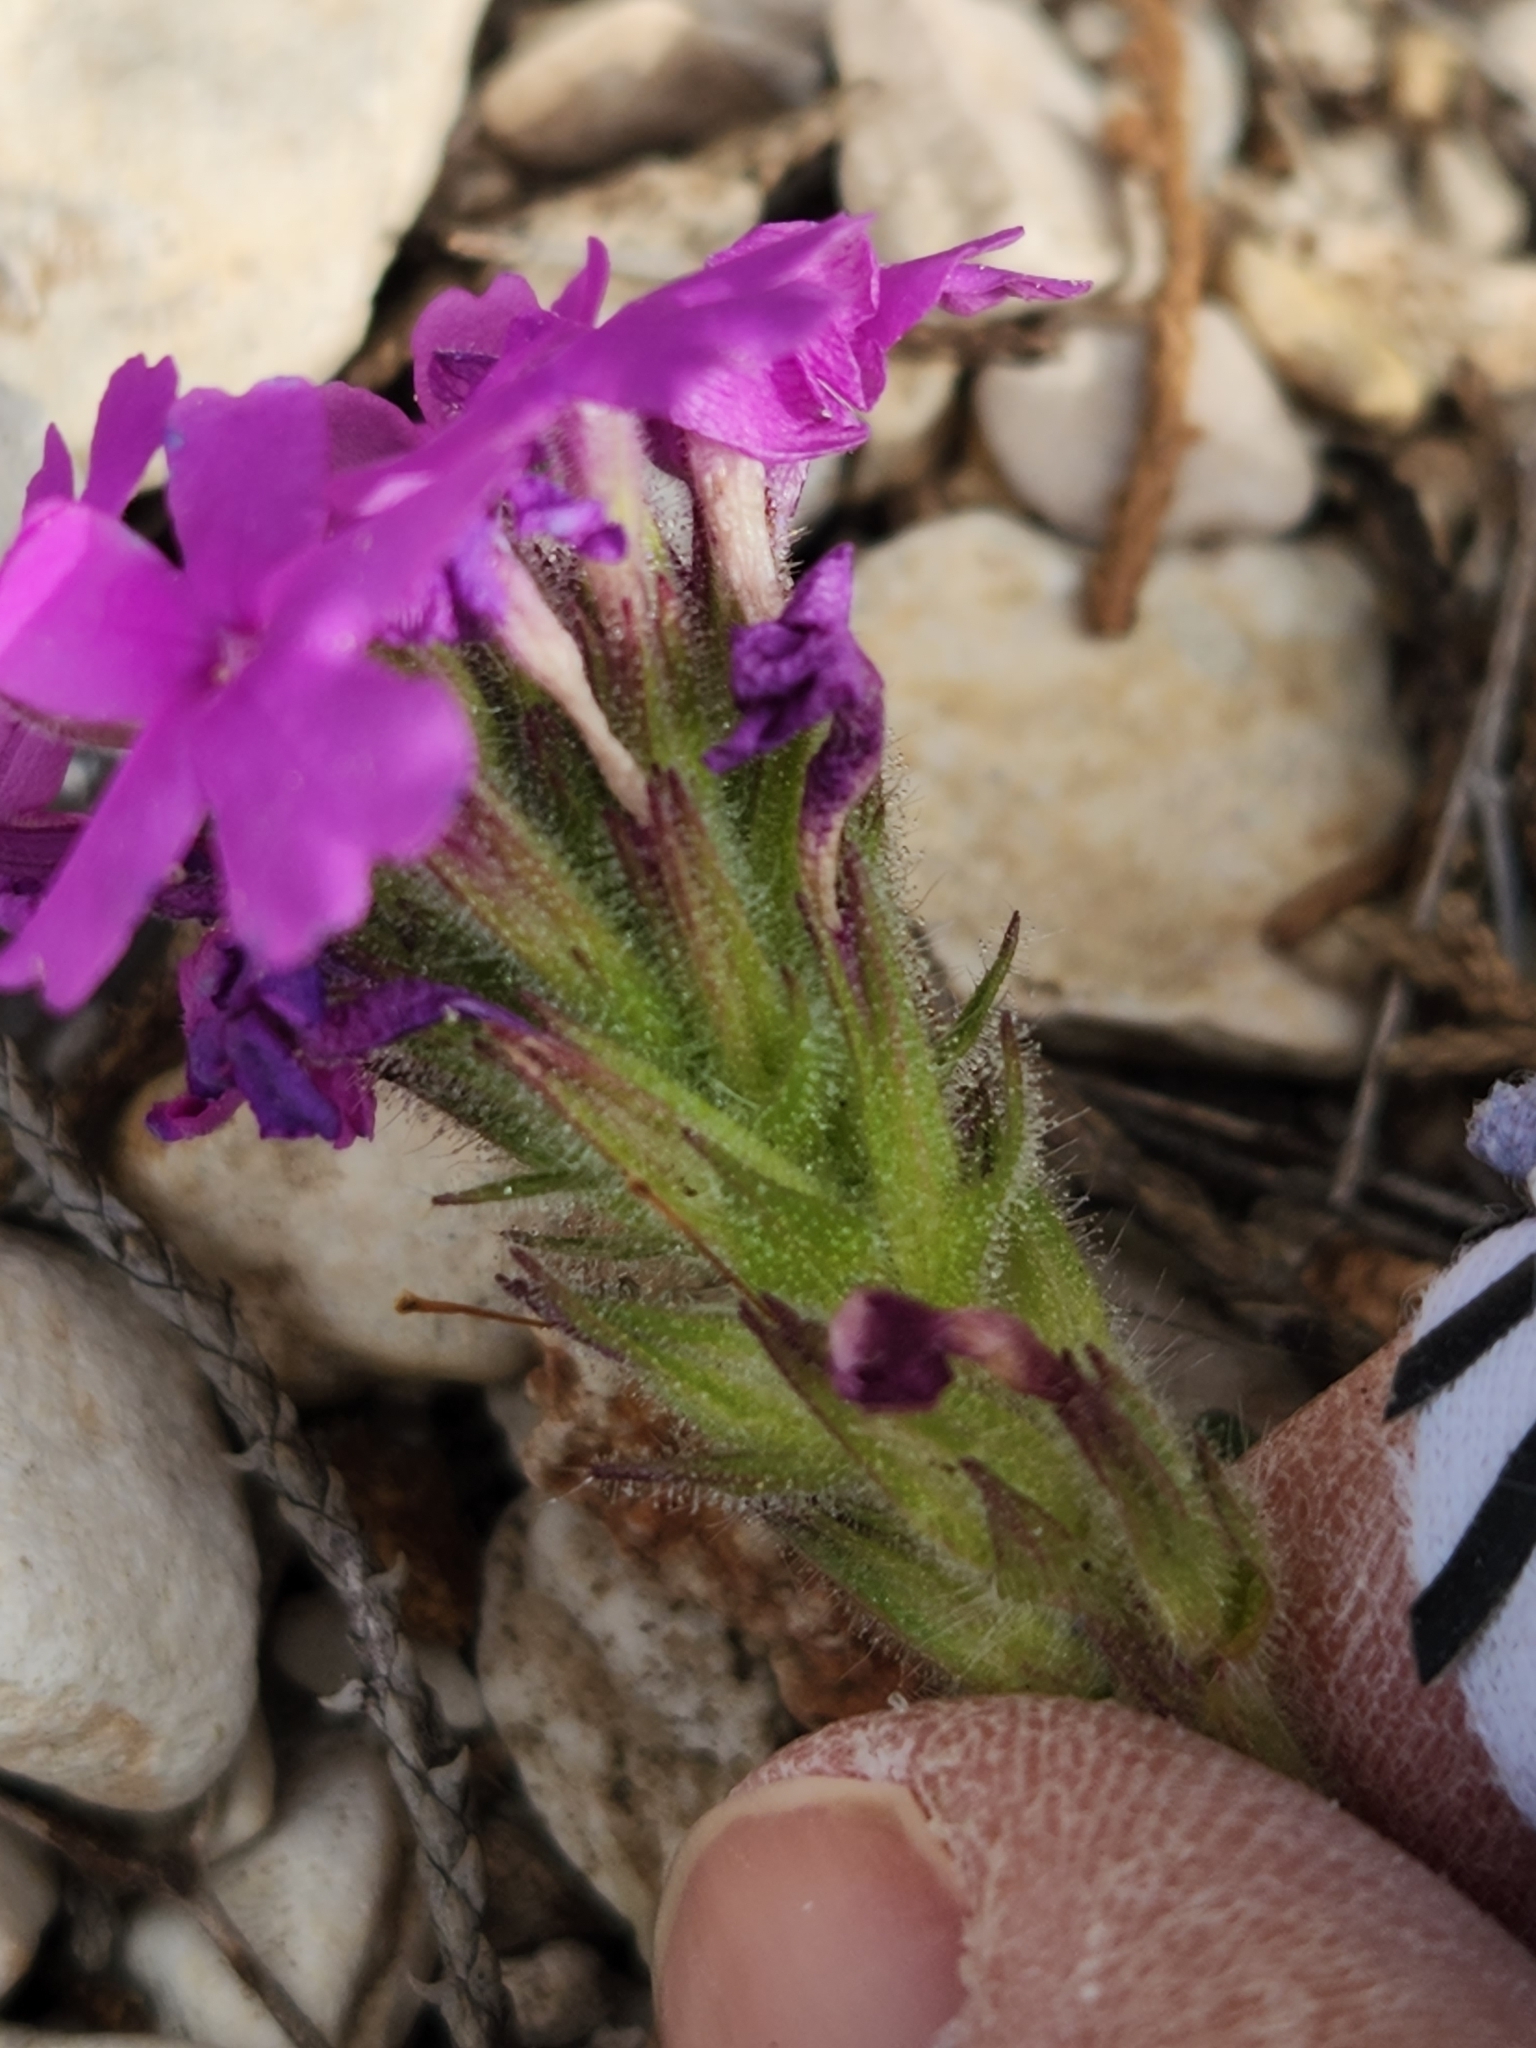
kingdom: Plantae
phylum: Tracheophyta
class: Magnoliopsida
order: Lamiales
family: Verbenaceae
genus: Verbena
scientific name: Verbena tumidula
